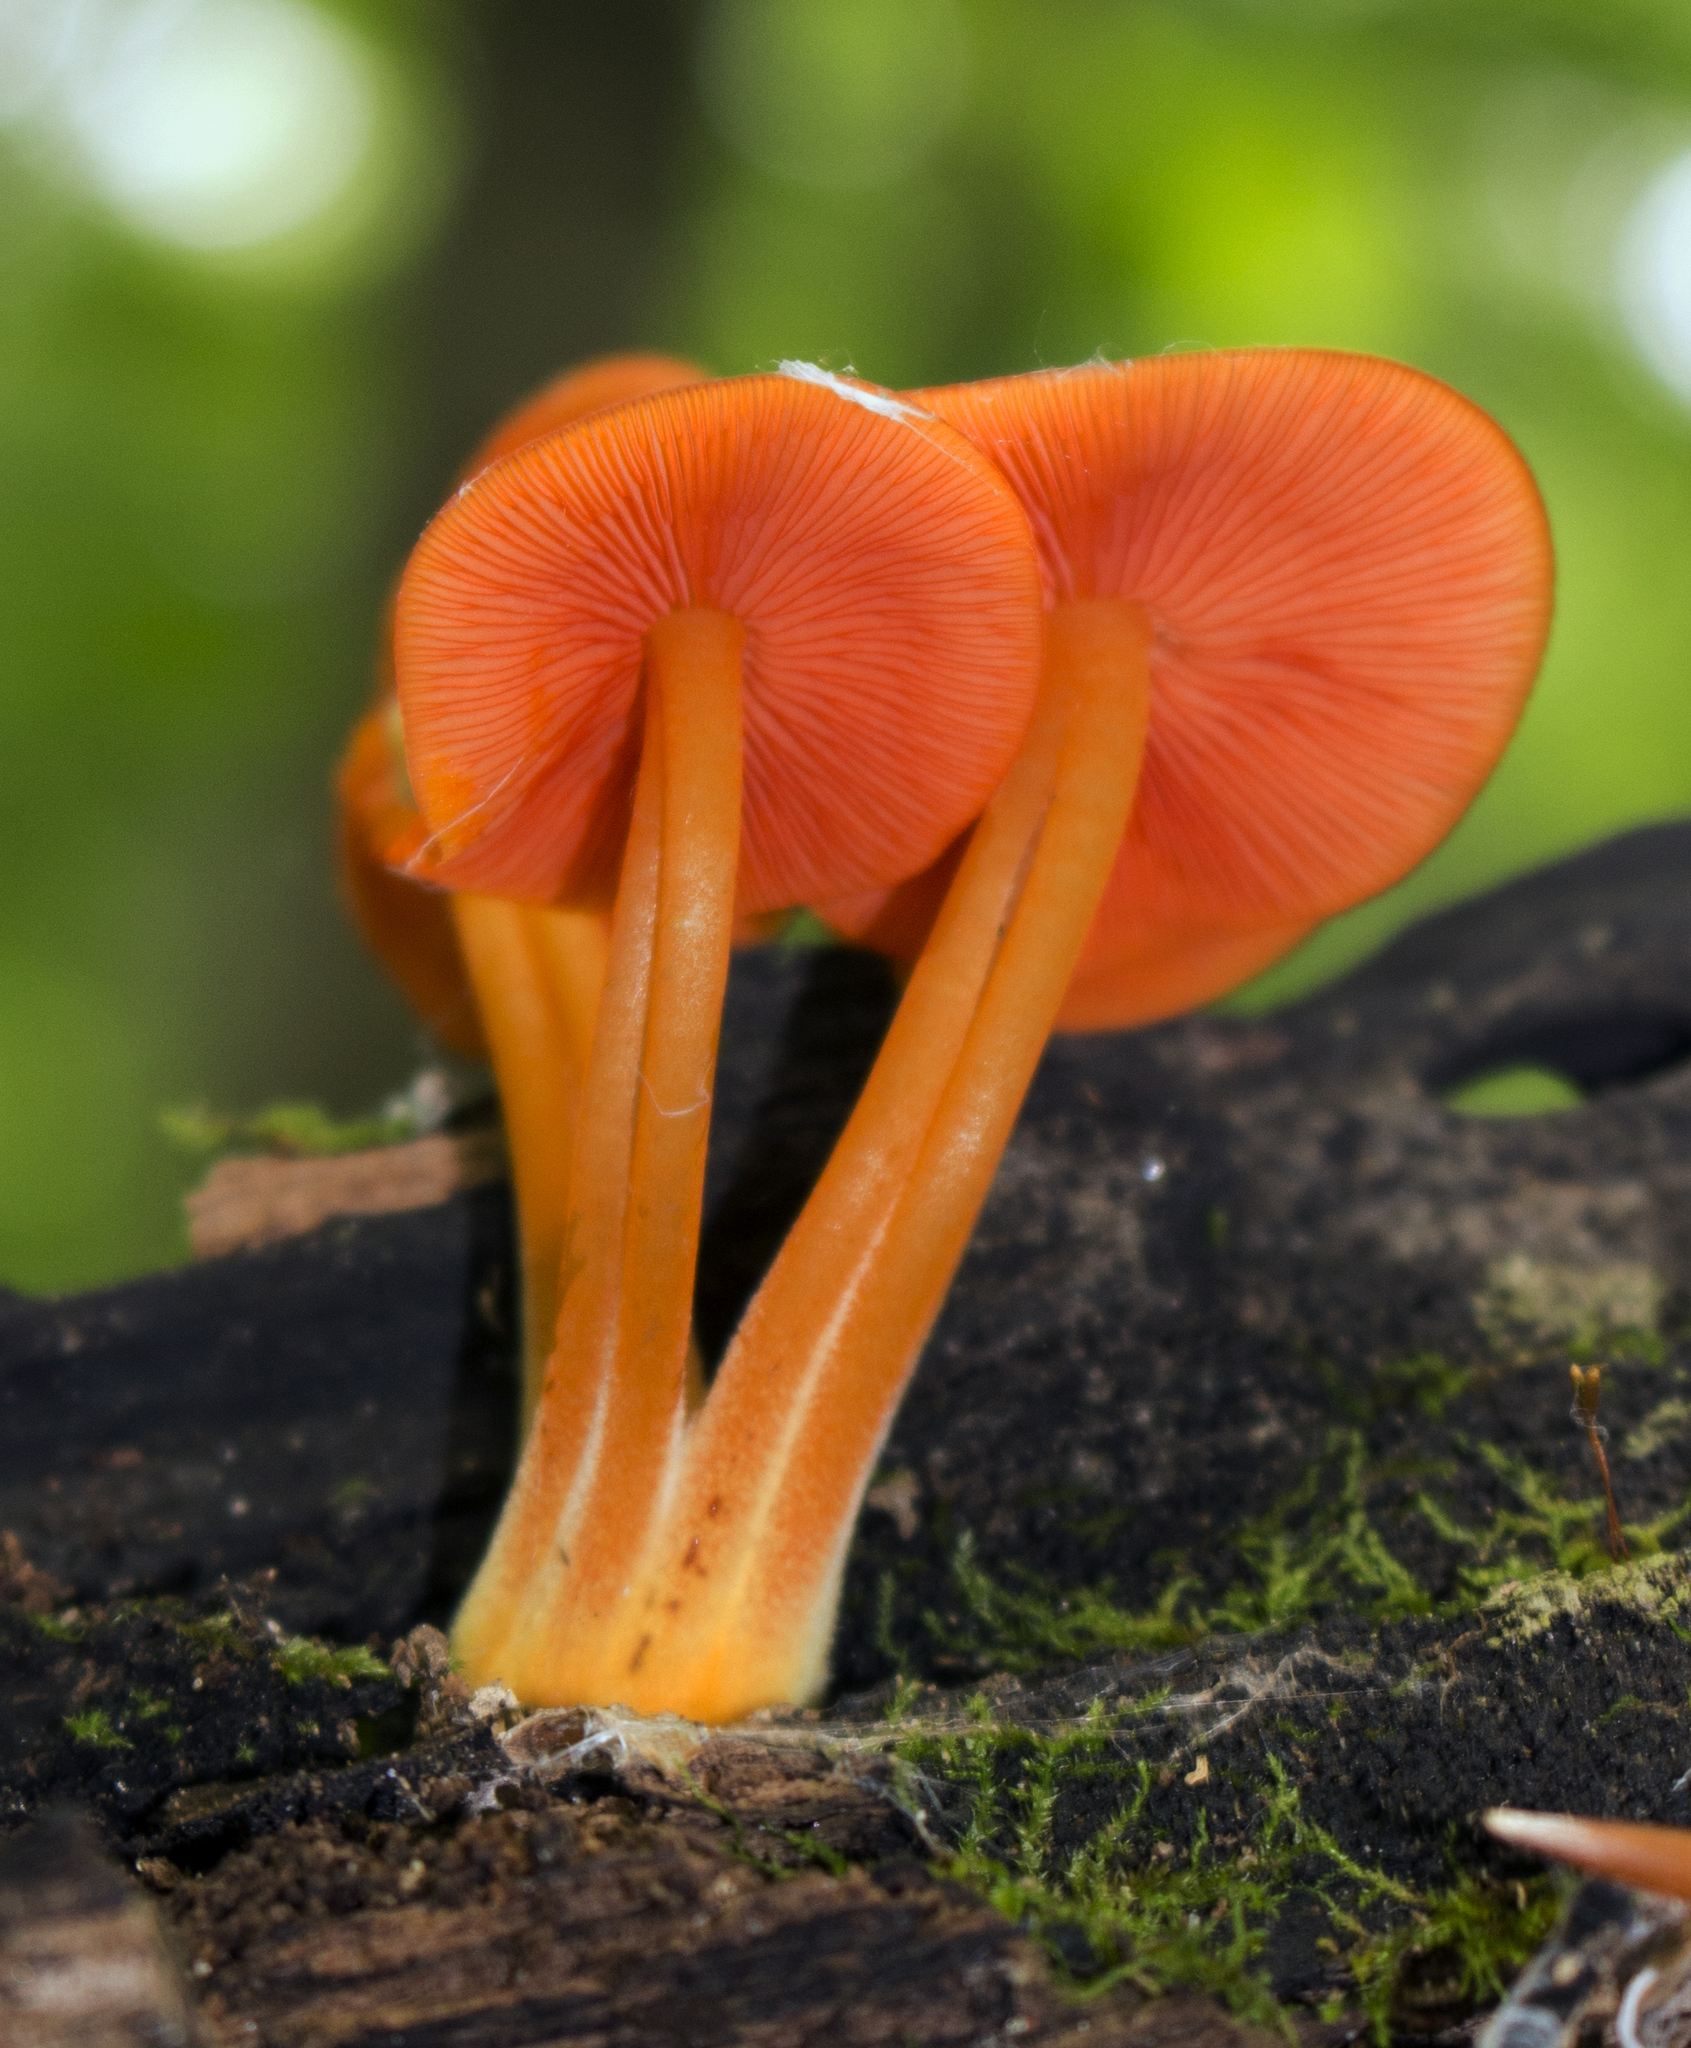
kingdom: Fungi
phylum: Basidiomycota
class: Agaricomycetes
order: Agaricales
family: Mycenaceae
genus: Mycena
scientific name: Mycena leaiana
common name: Orange mycena
